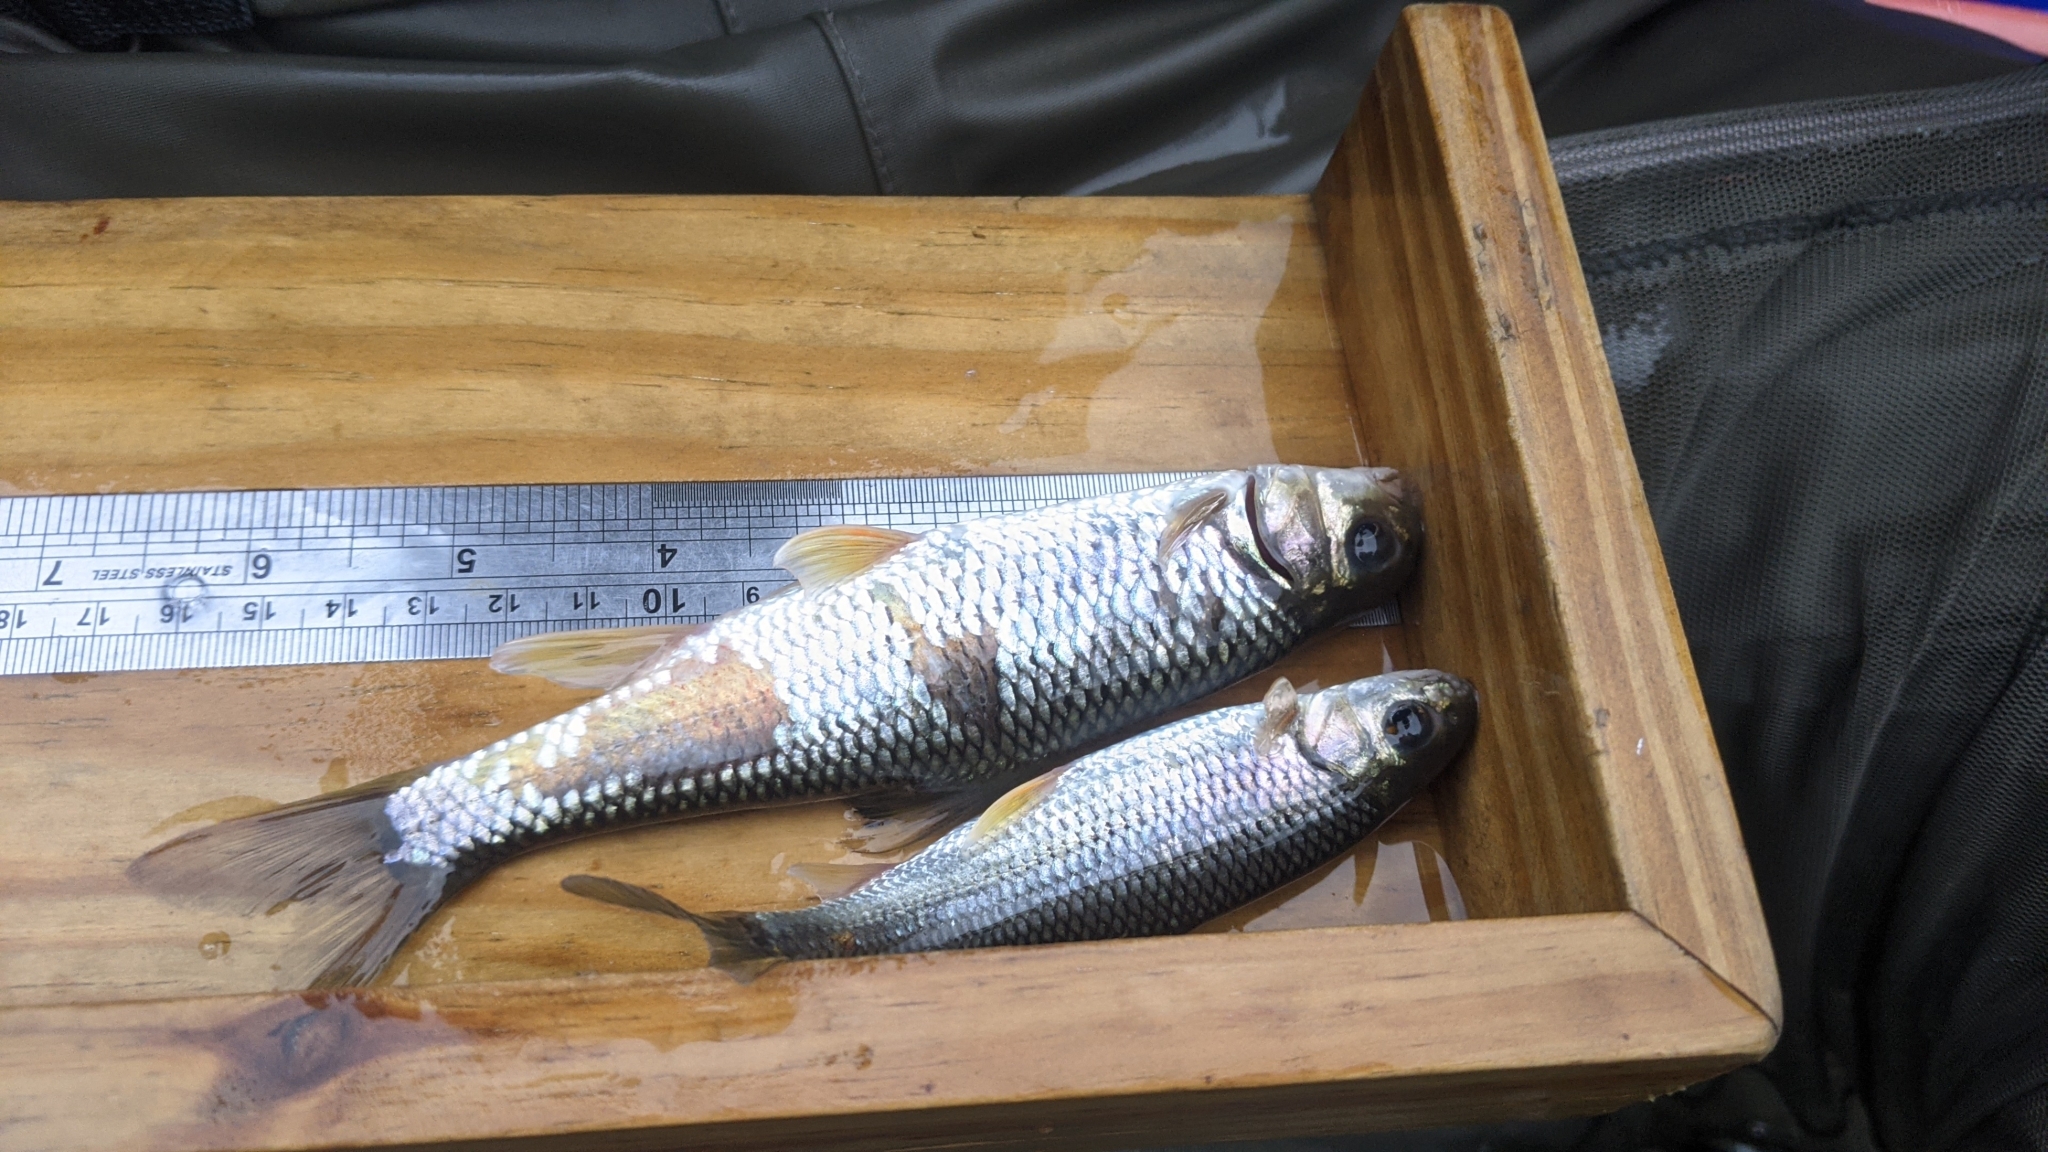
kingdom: Animalia
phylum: Chordata
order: Cypriniformes
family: Cyprinidae
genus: Onychostoma
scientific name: Onychostoma barbatulum
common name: Taiwan shoveljaw carp
